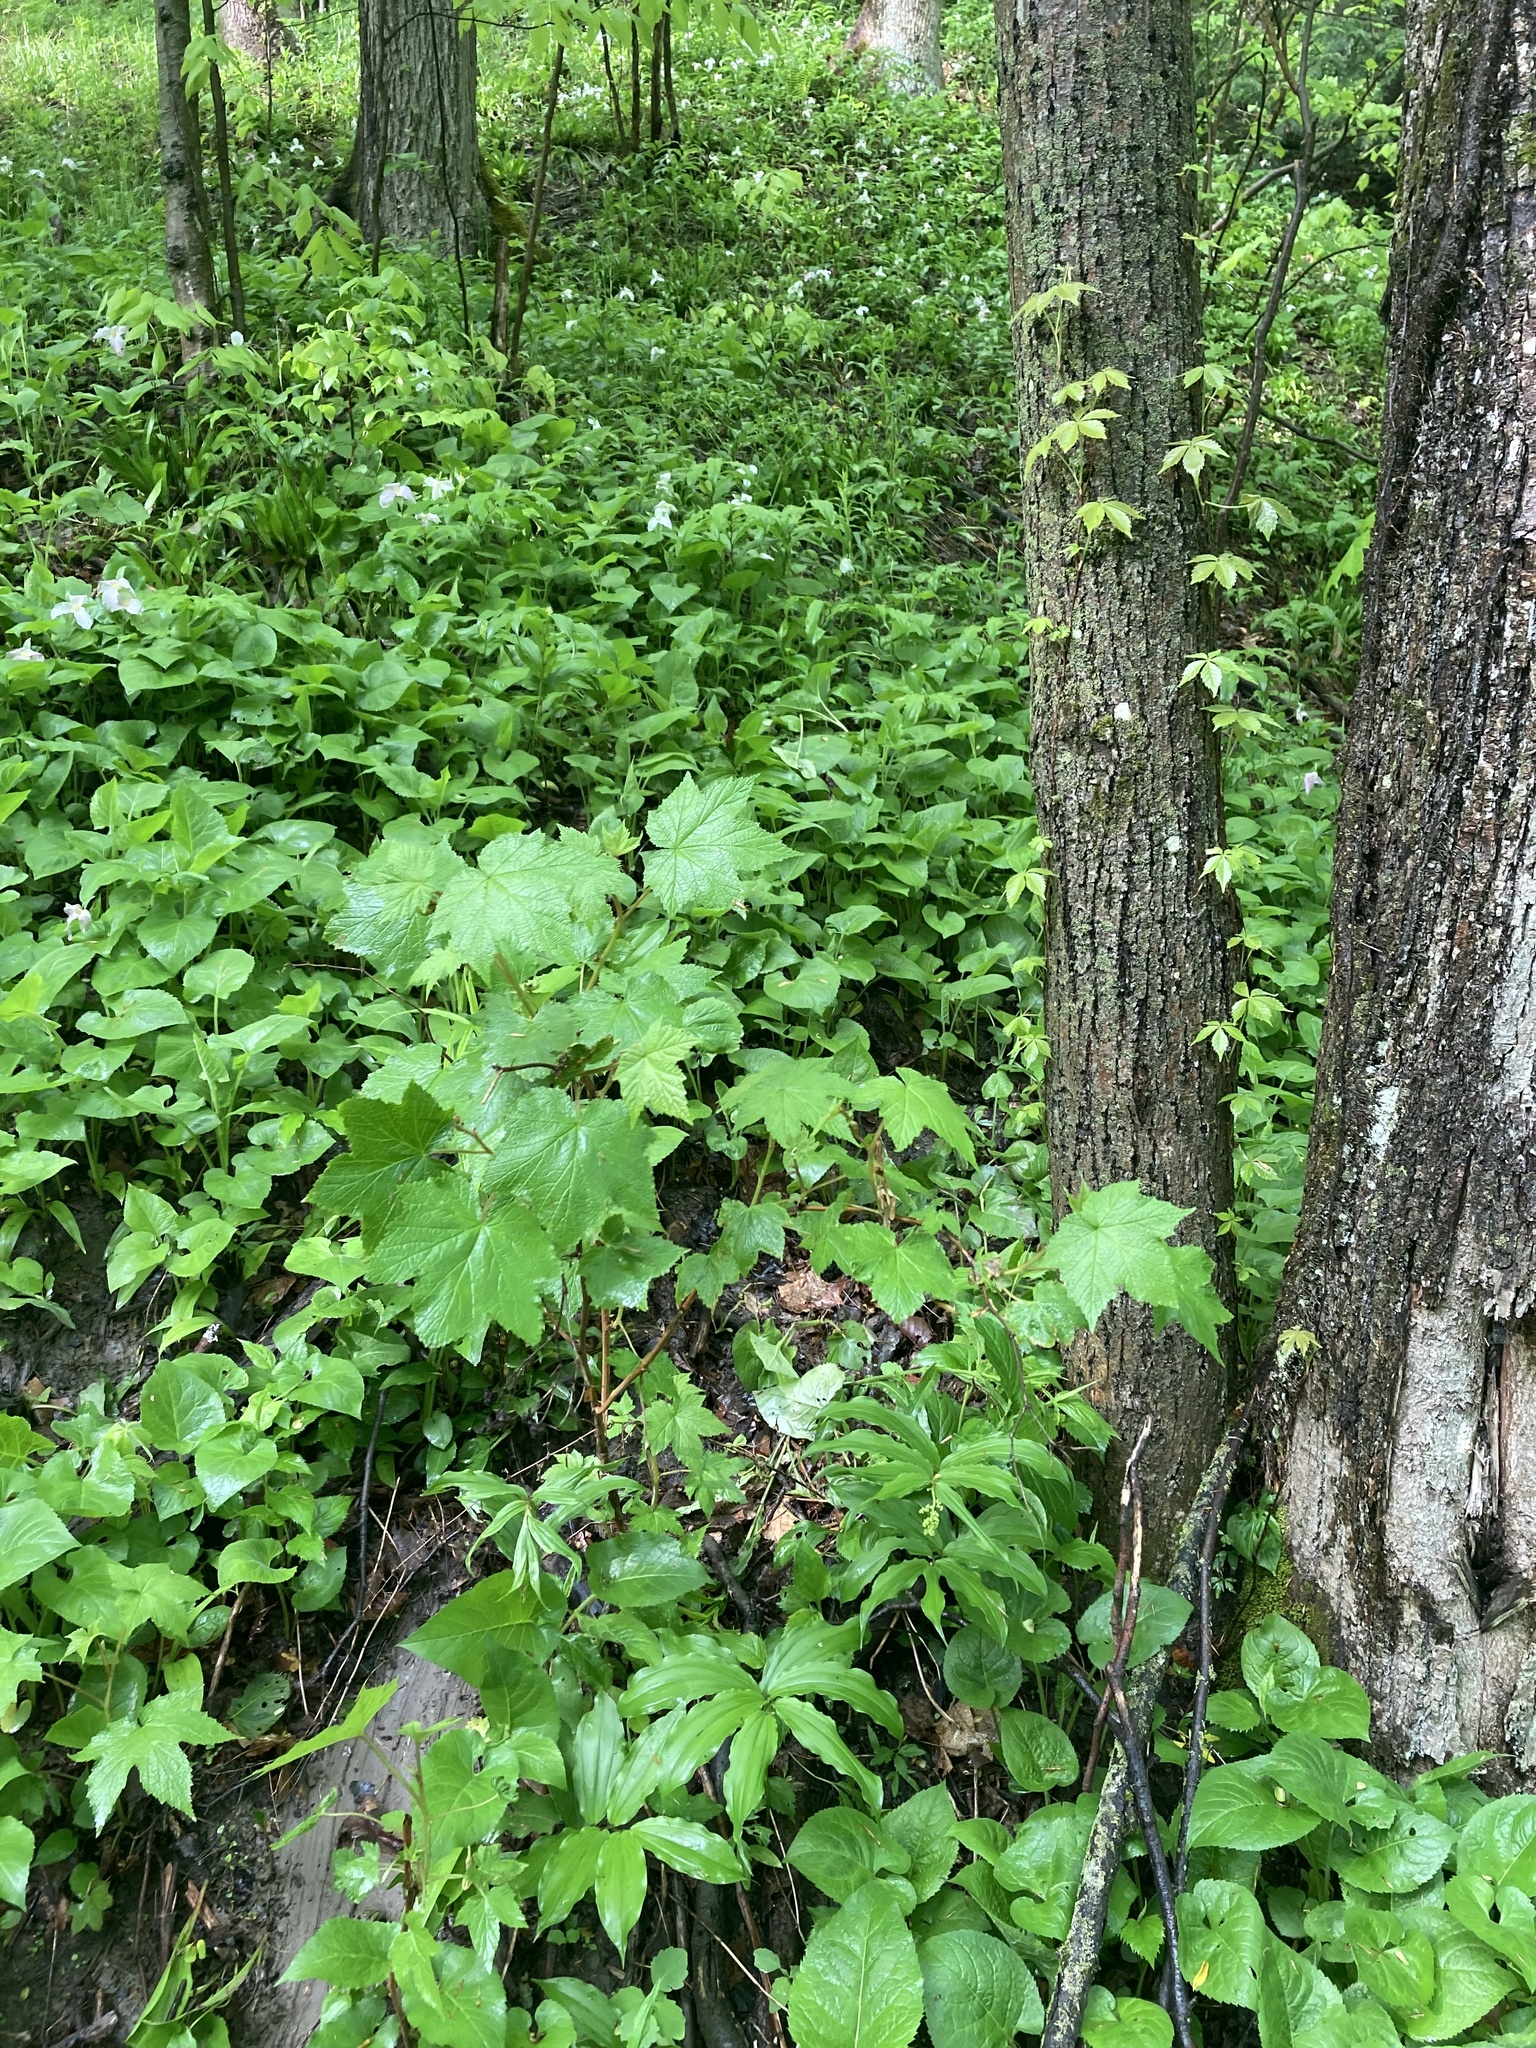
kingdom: Plantae
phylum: Tracheophyta
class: Magnoliopsida
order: Rosales
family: Rosaceae
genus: Rubus
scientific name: Rubus odoratus
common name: Purple-flowered raspberry
